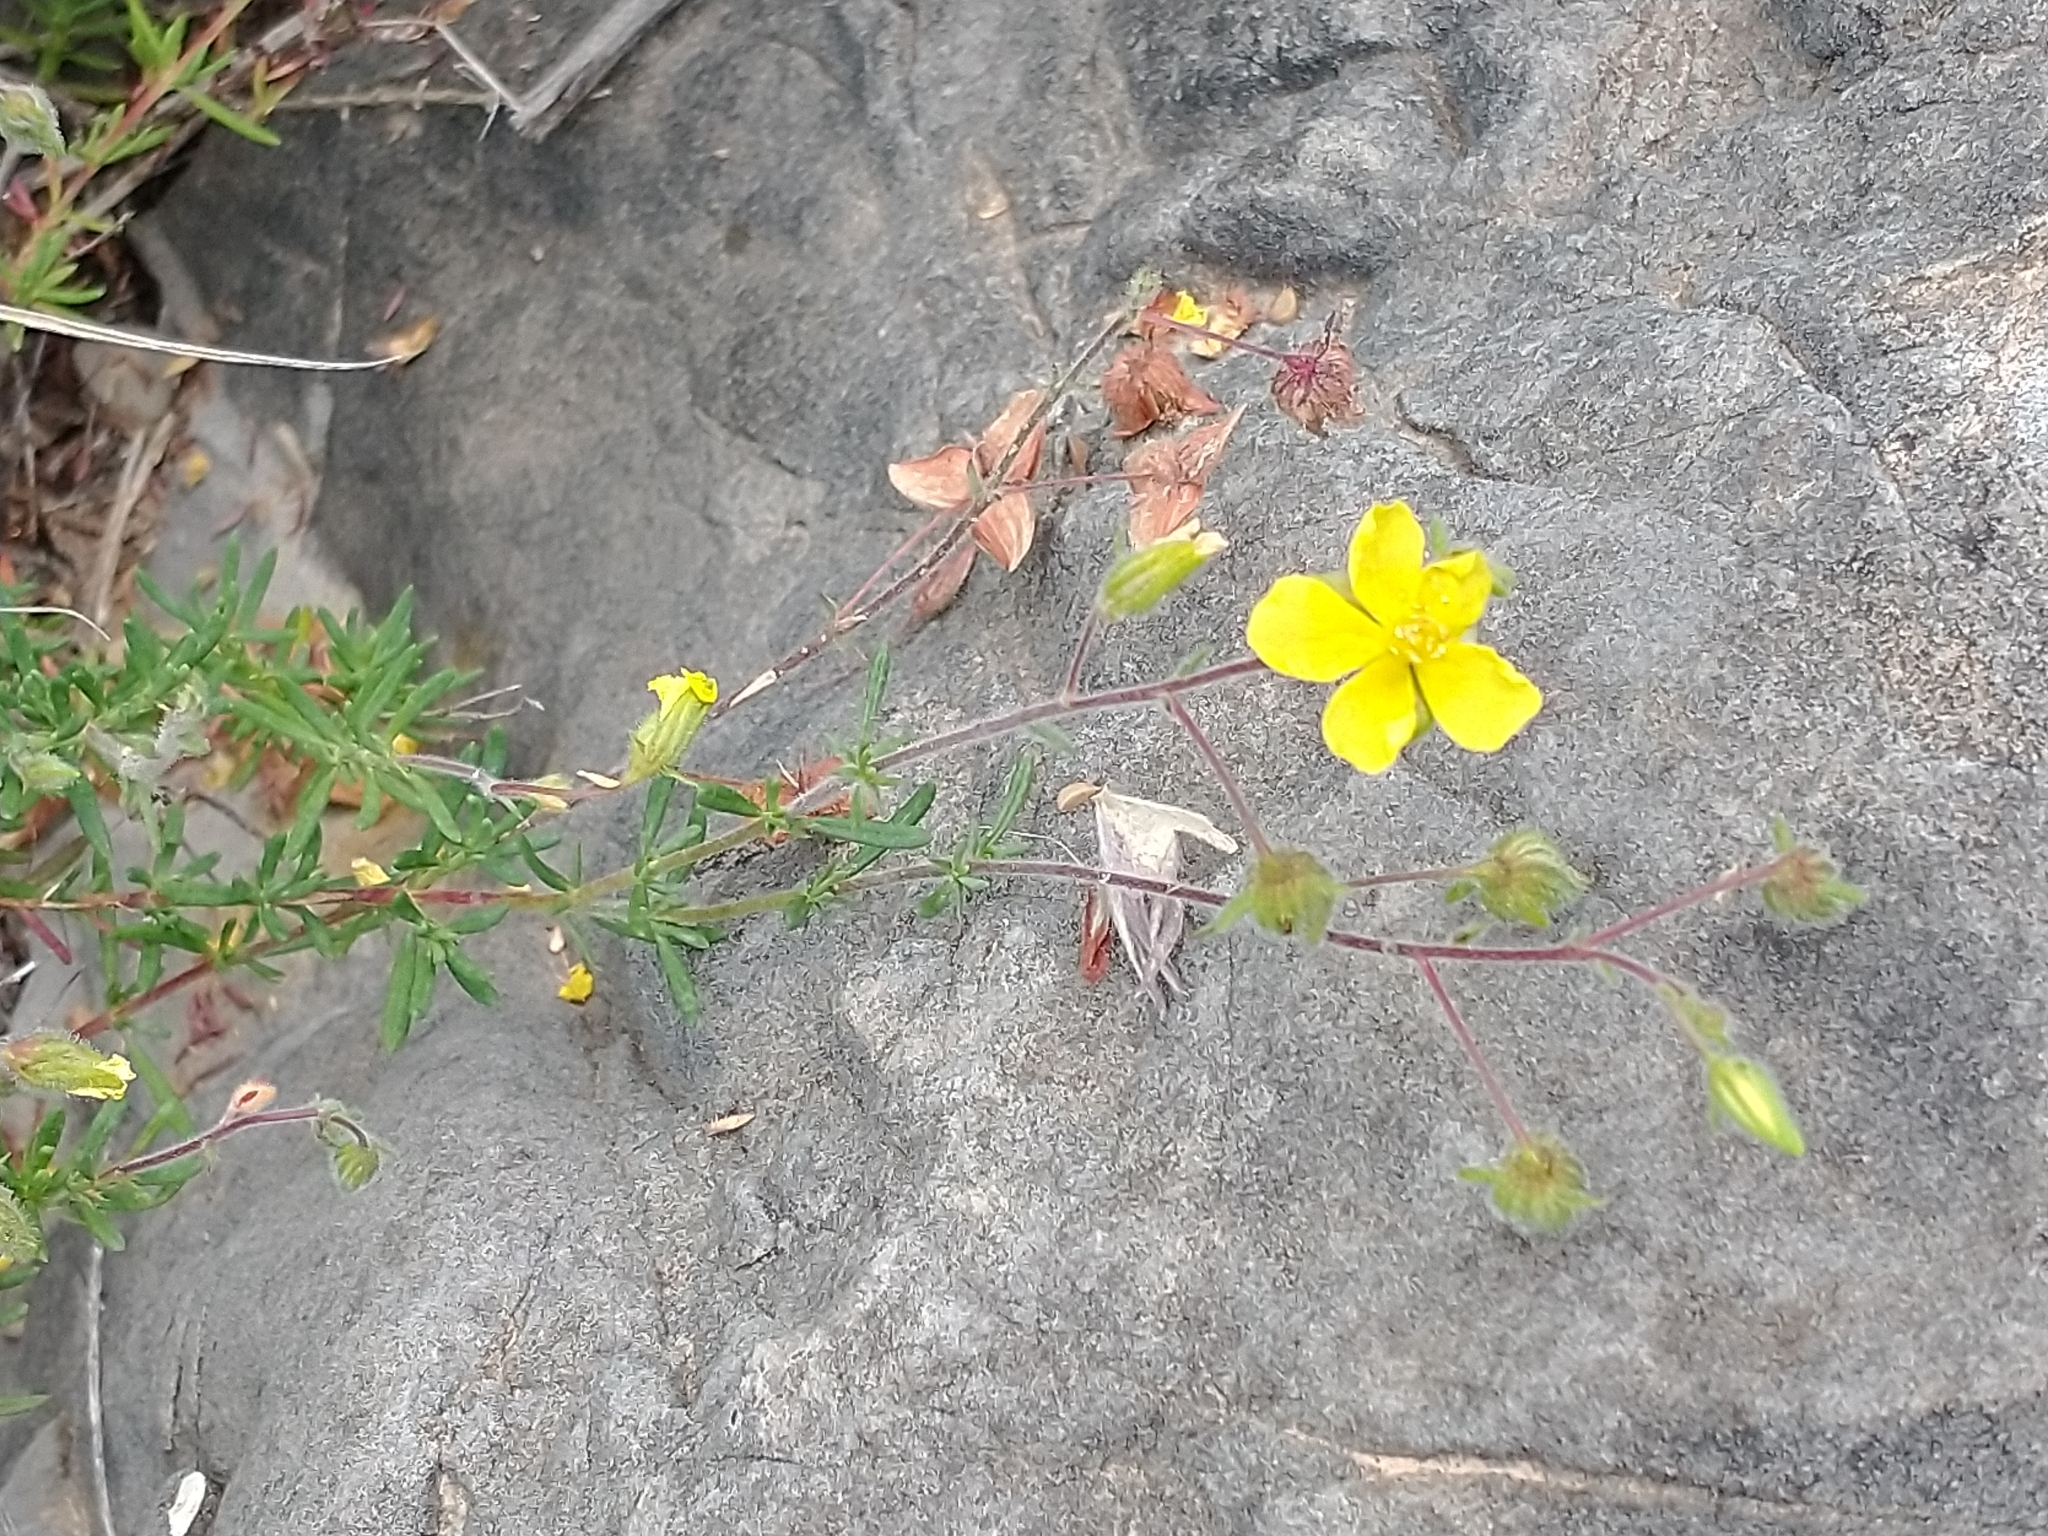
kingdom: Plantae
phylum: Tracheophyta
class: Magnoliopsida
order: Malvales
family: Cistaceae
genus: Fumana
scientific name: Fumana thymifolia
